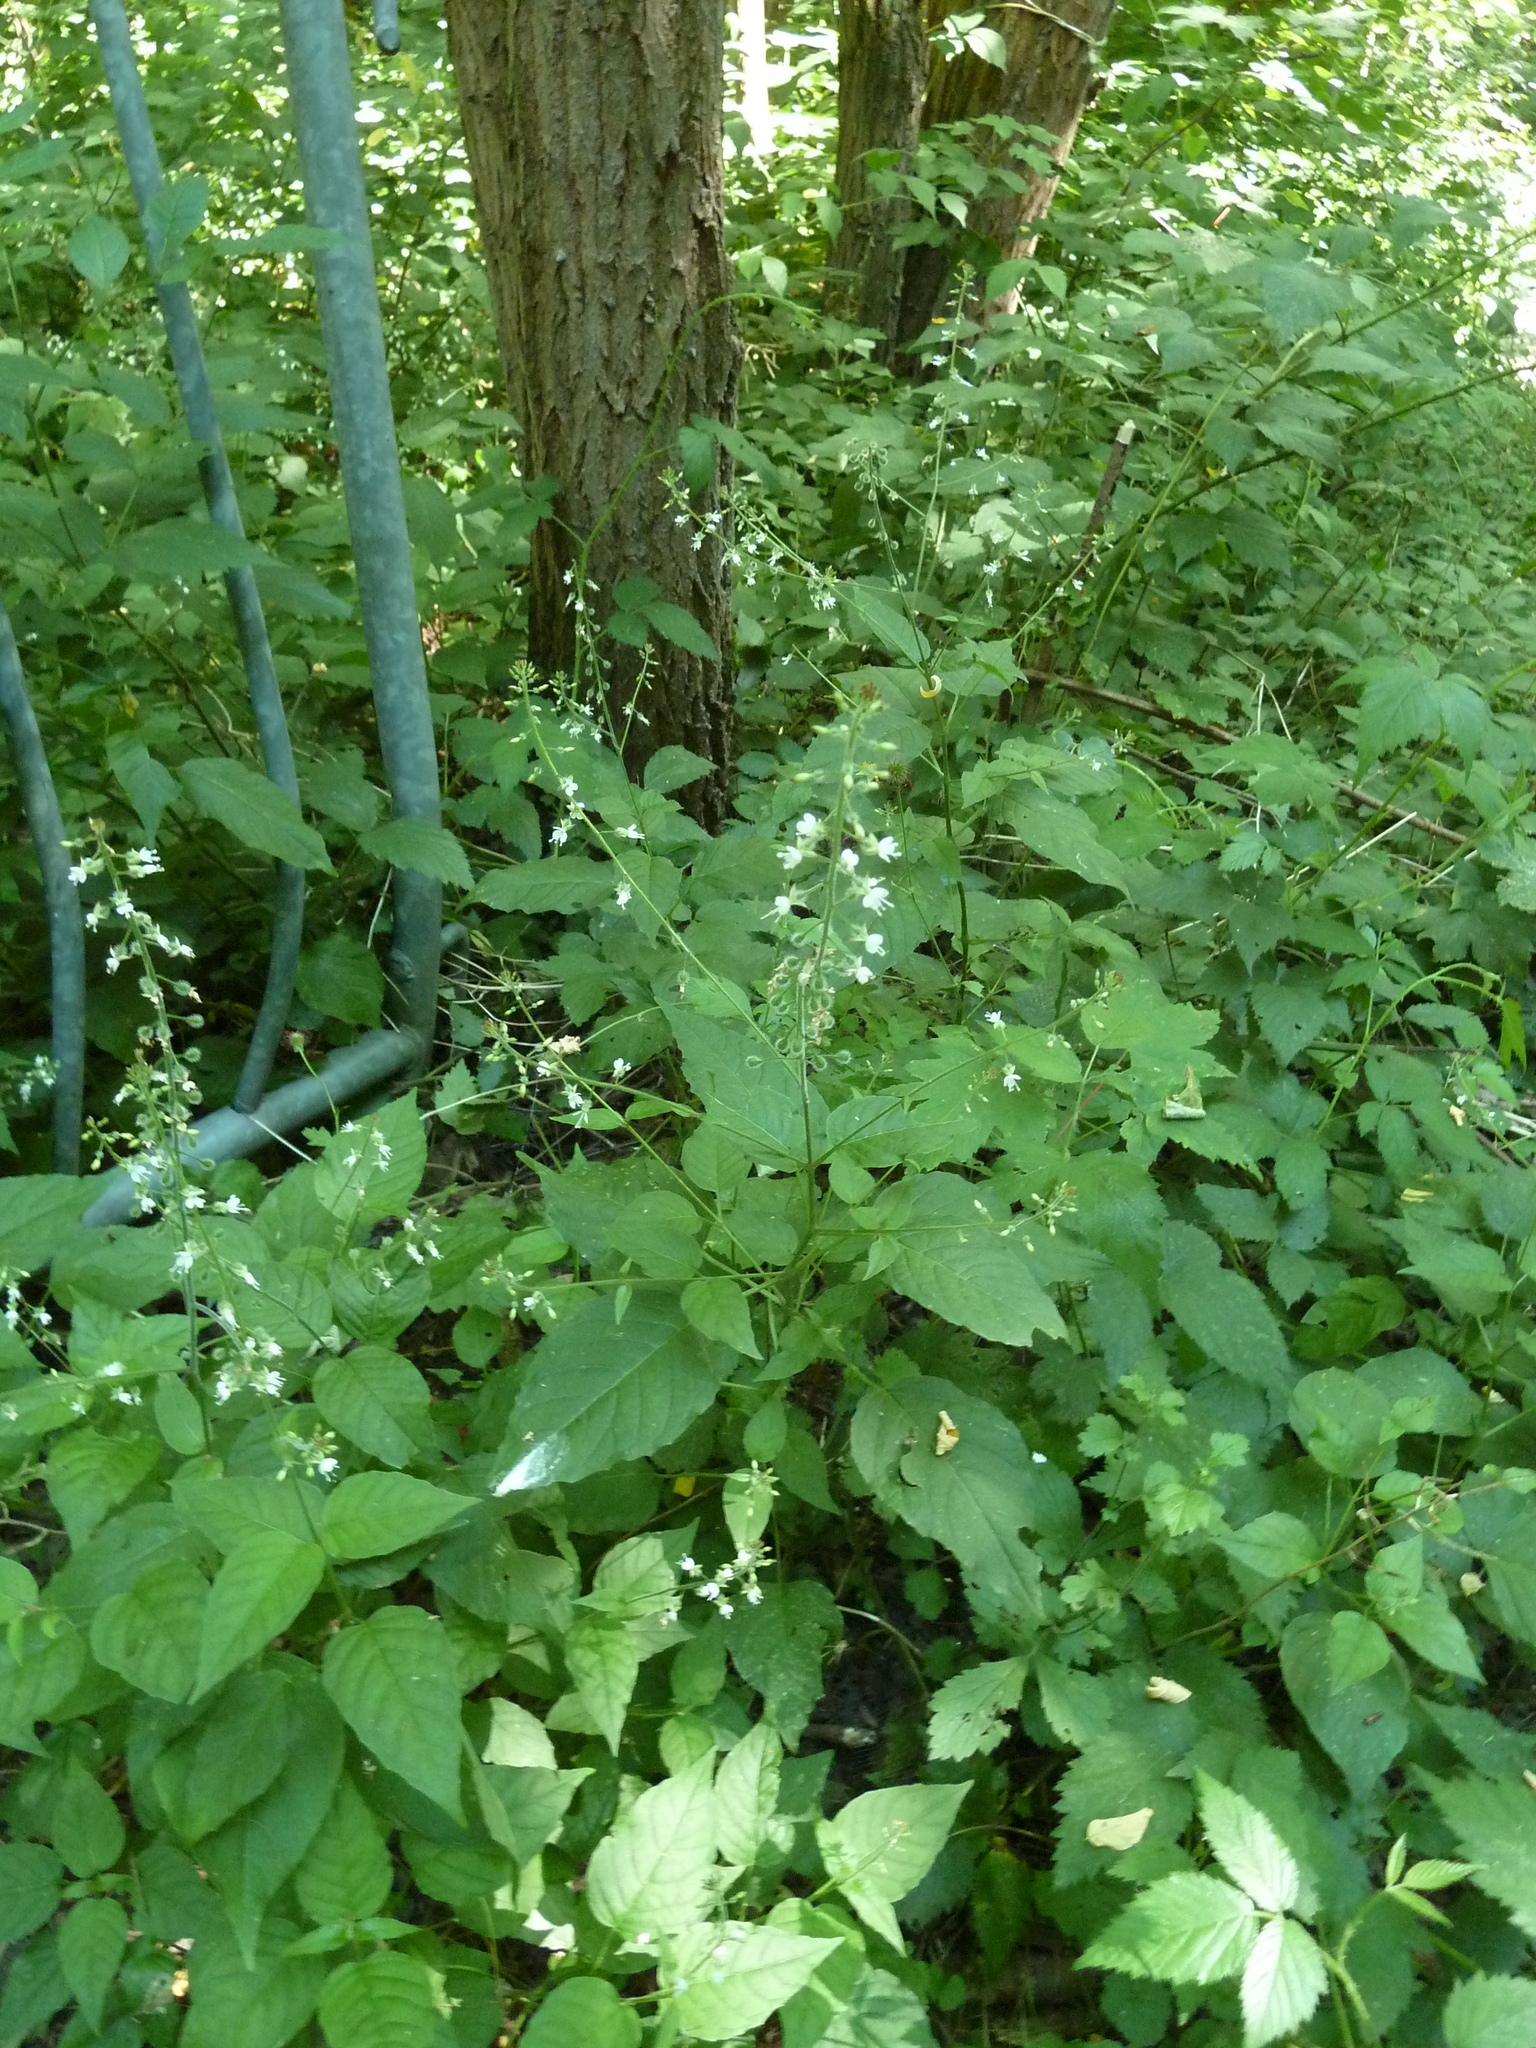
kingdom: Plantae
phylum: Tracheophyta
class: Magnoliopsida
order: Myrtales
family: Onagraceae
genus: Circaea
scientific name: Circaea lutetiana
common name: Enchanter's-nightshade
